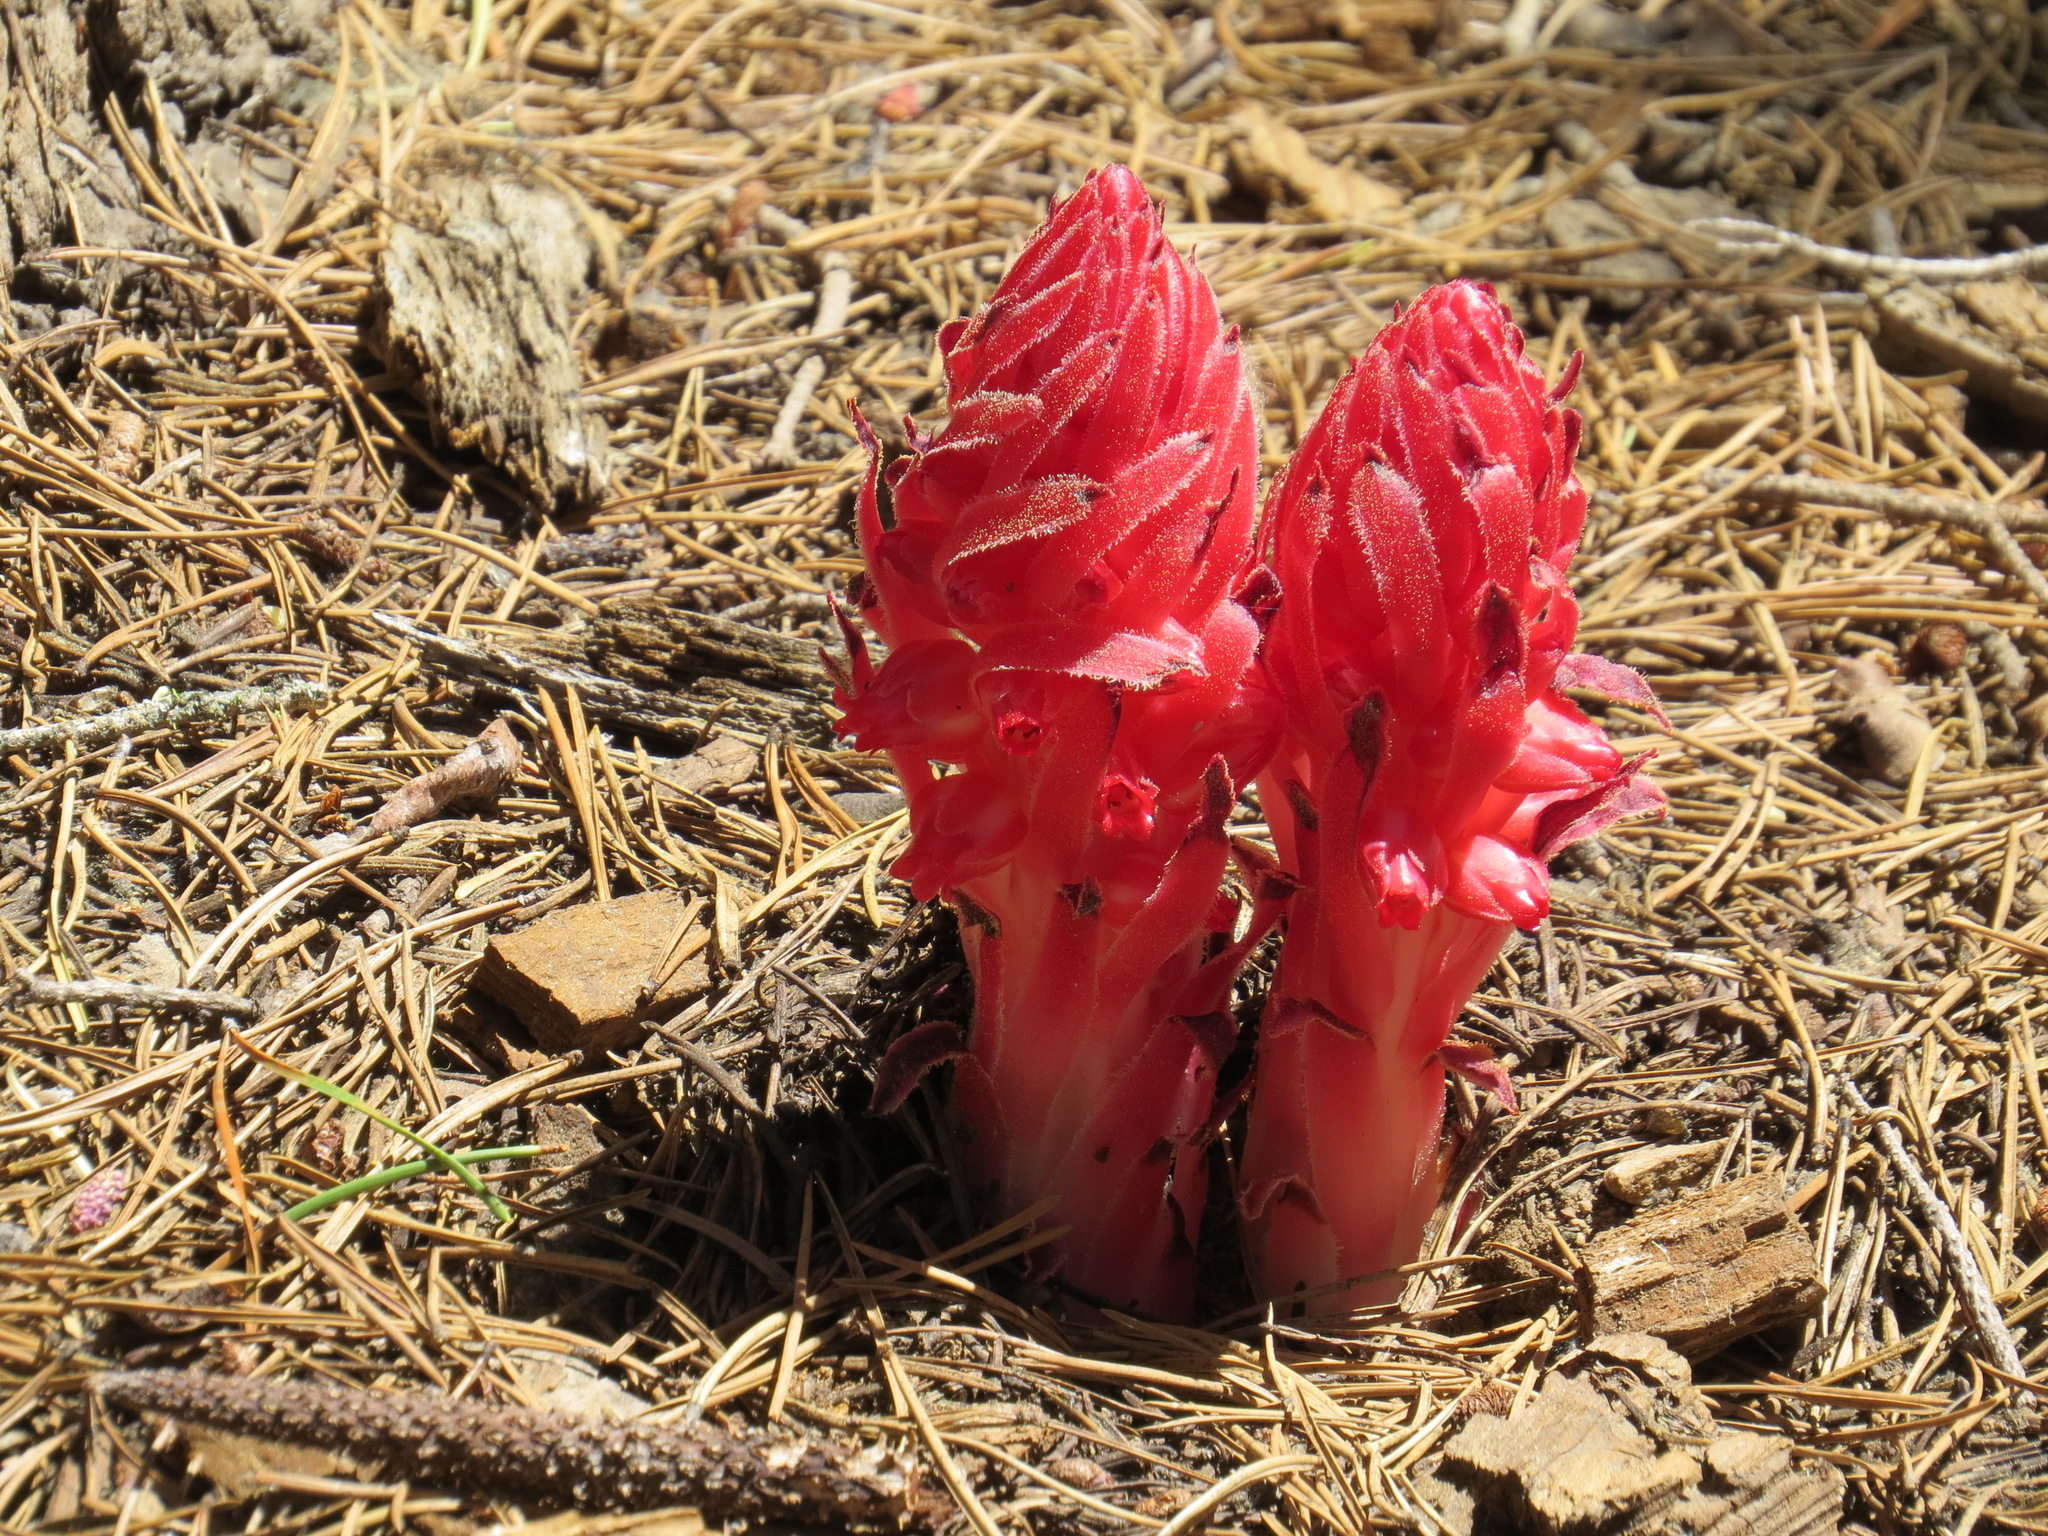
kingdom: Plantae
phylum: Tracheophyta
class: Magnoliopsida
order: Ericales
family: Ericaceae
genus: Sarcodes
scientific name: Sarcodes sanguinea
